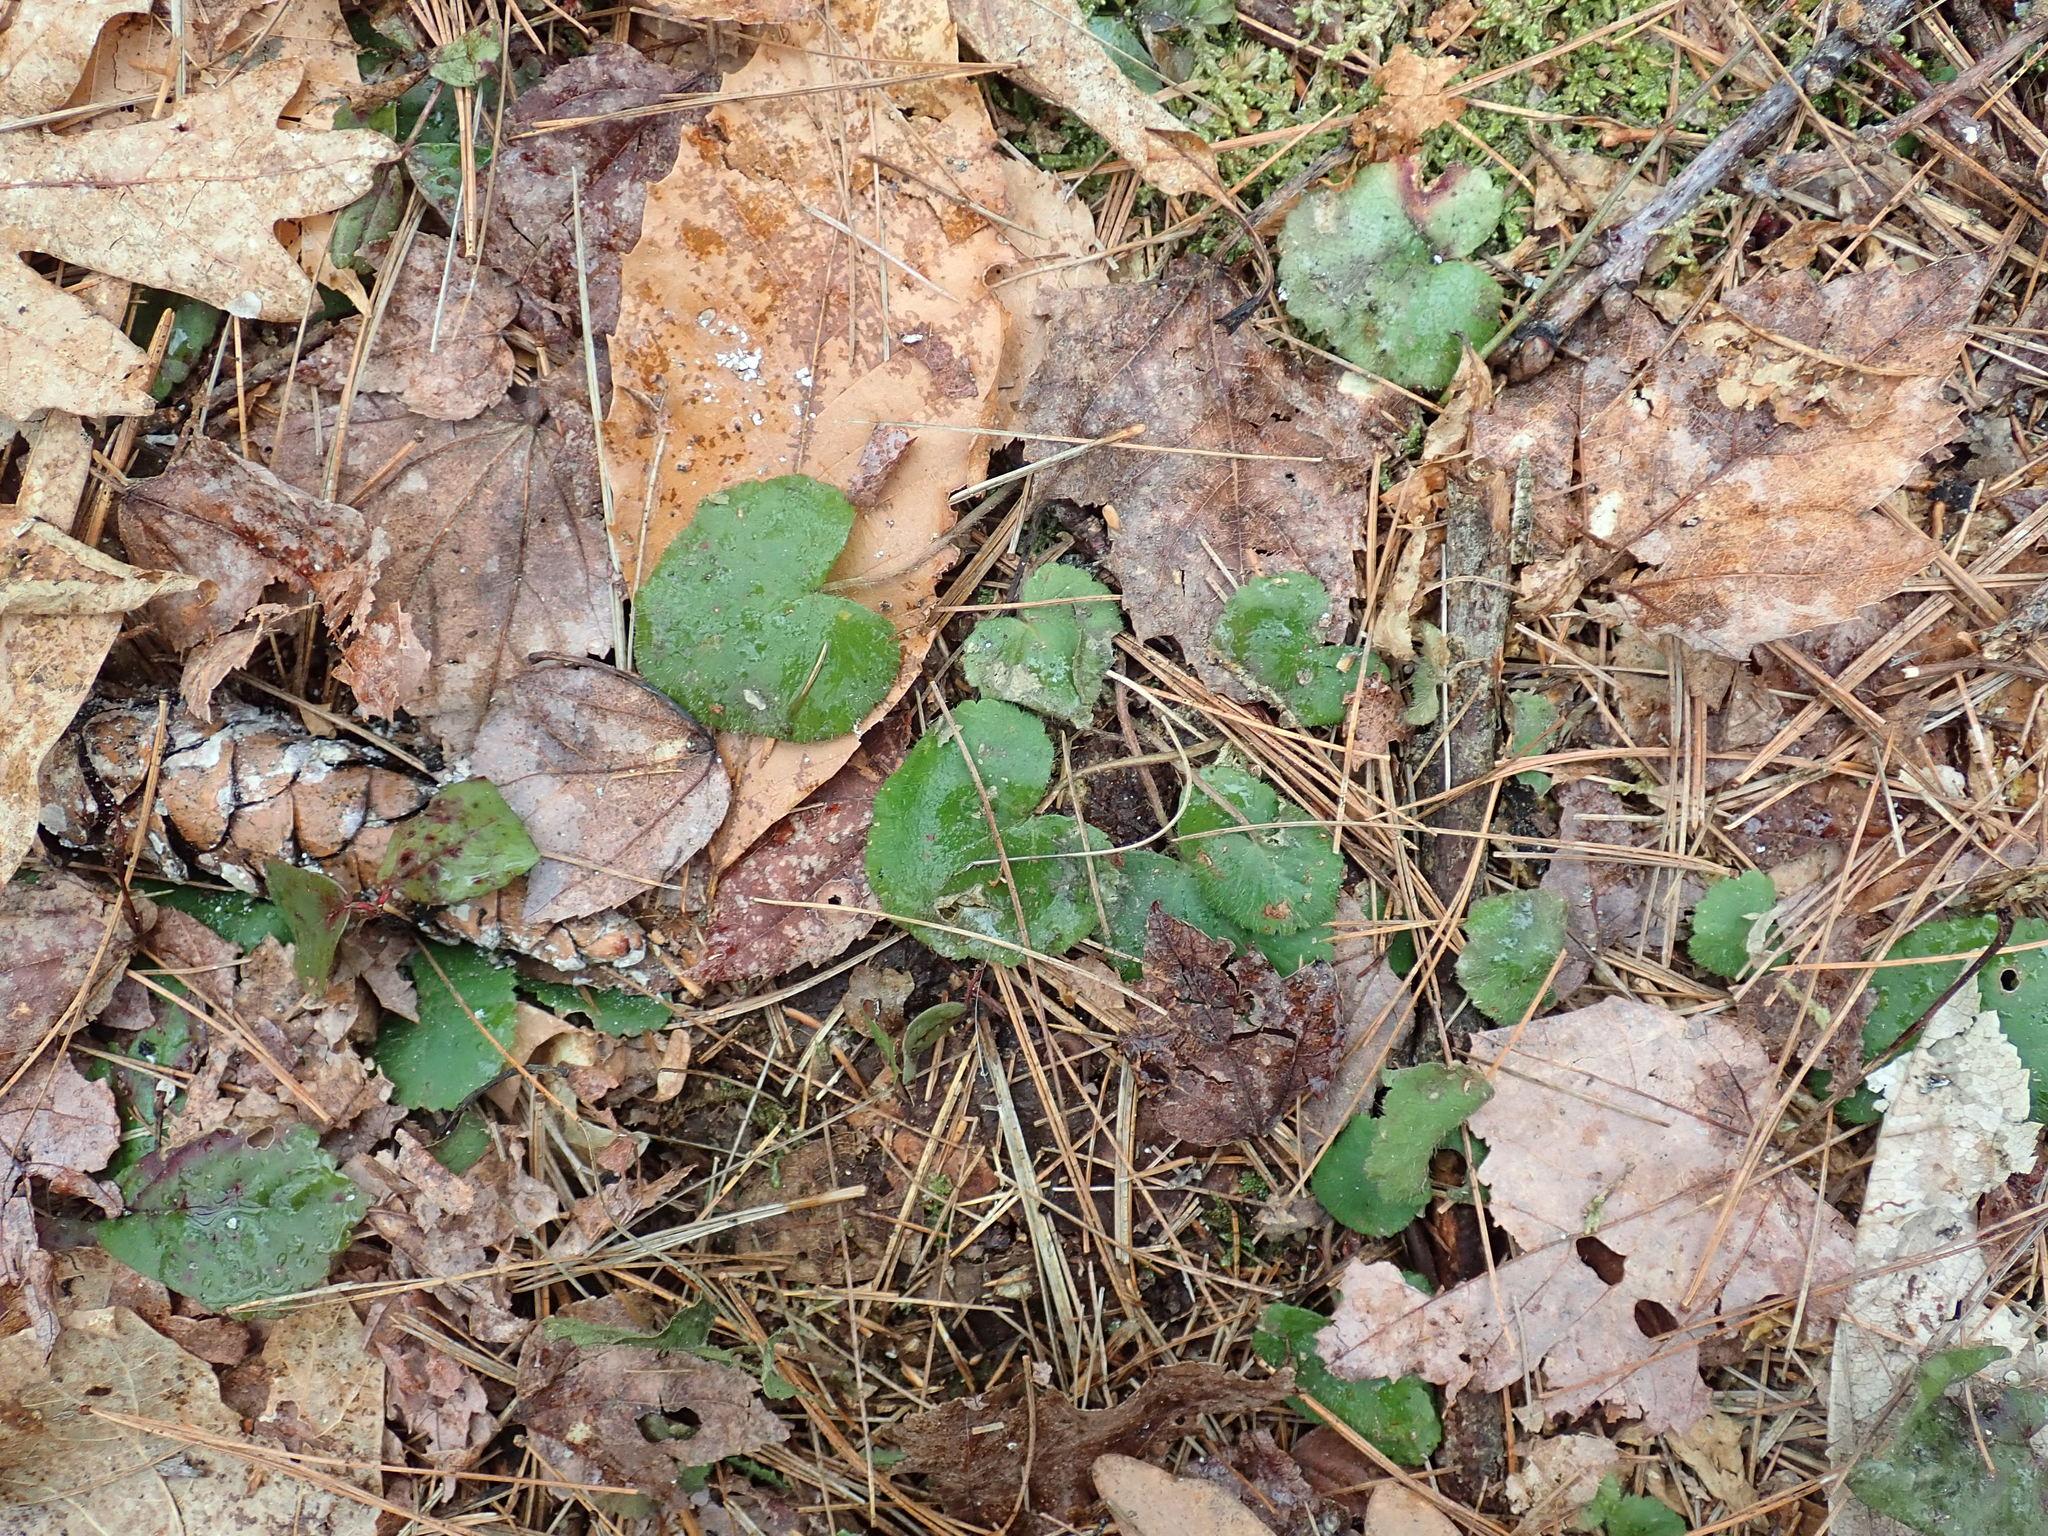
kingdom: Plantae
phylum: Tracheophyta
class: Magnoliopsida
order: Rosales
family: Rosaceae
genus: Dalibarda
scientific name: Dalibarda repens
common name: Dewdrop
